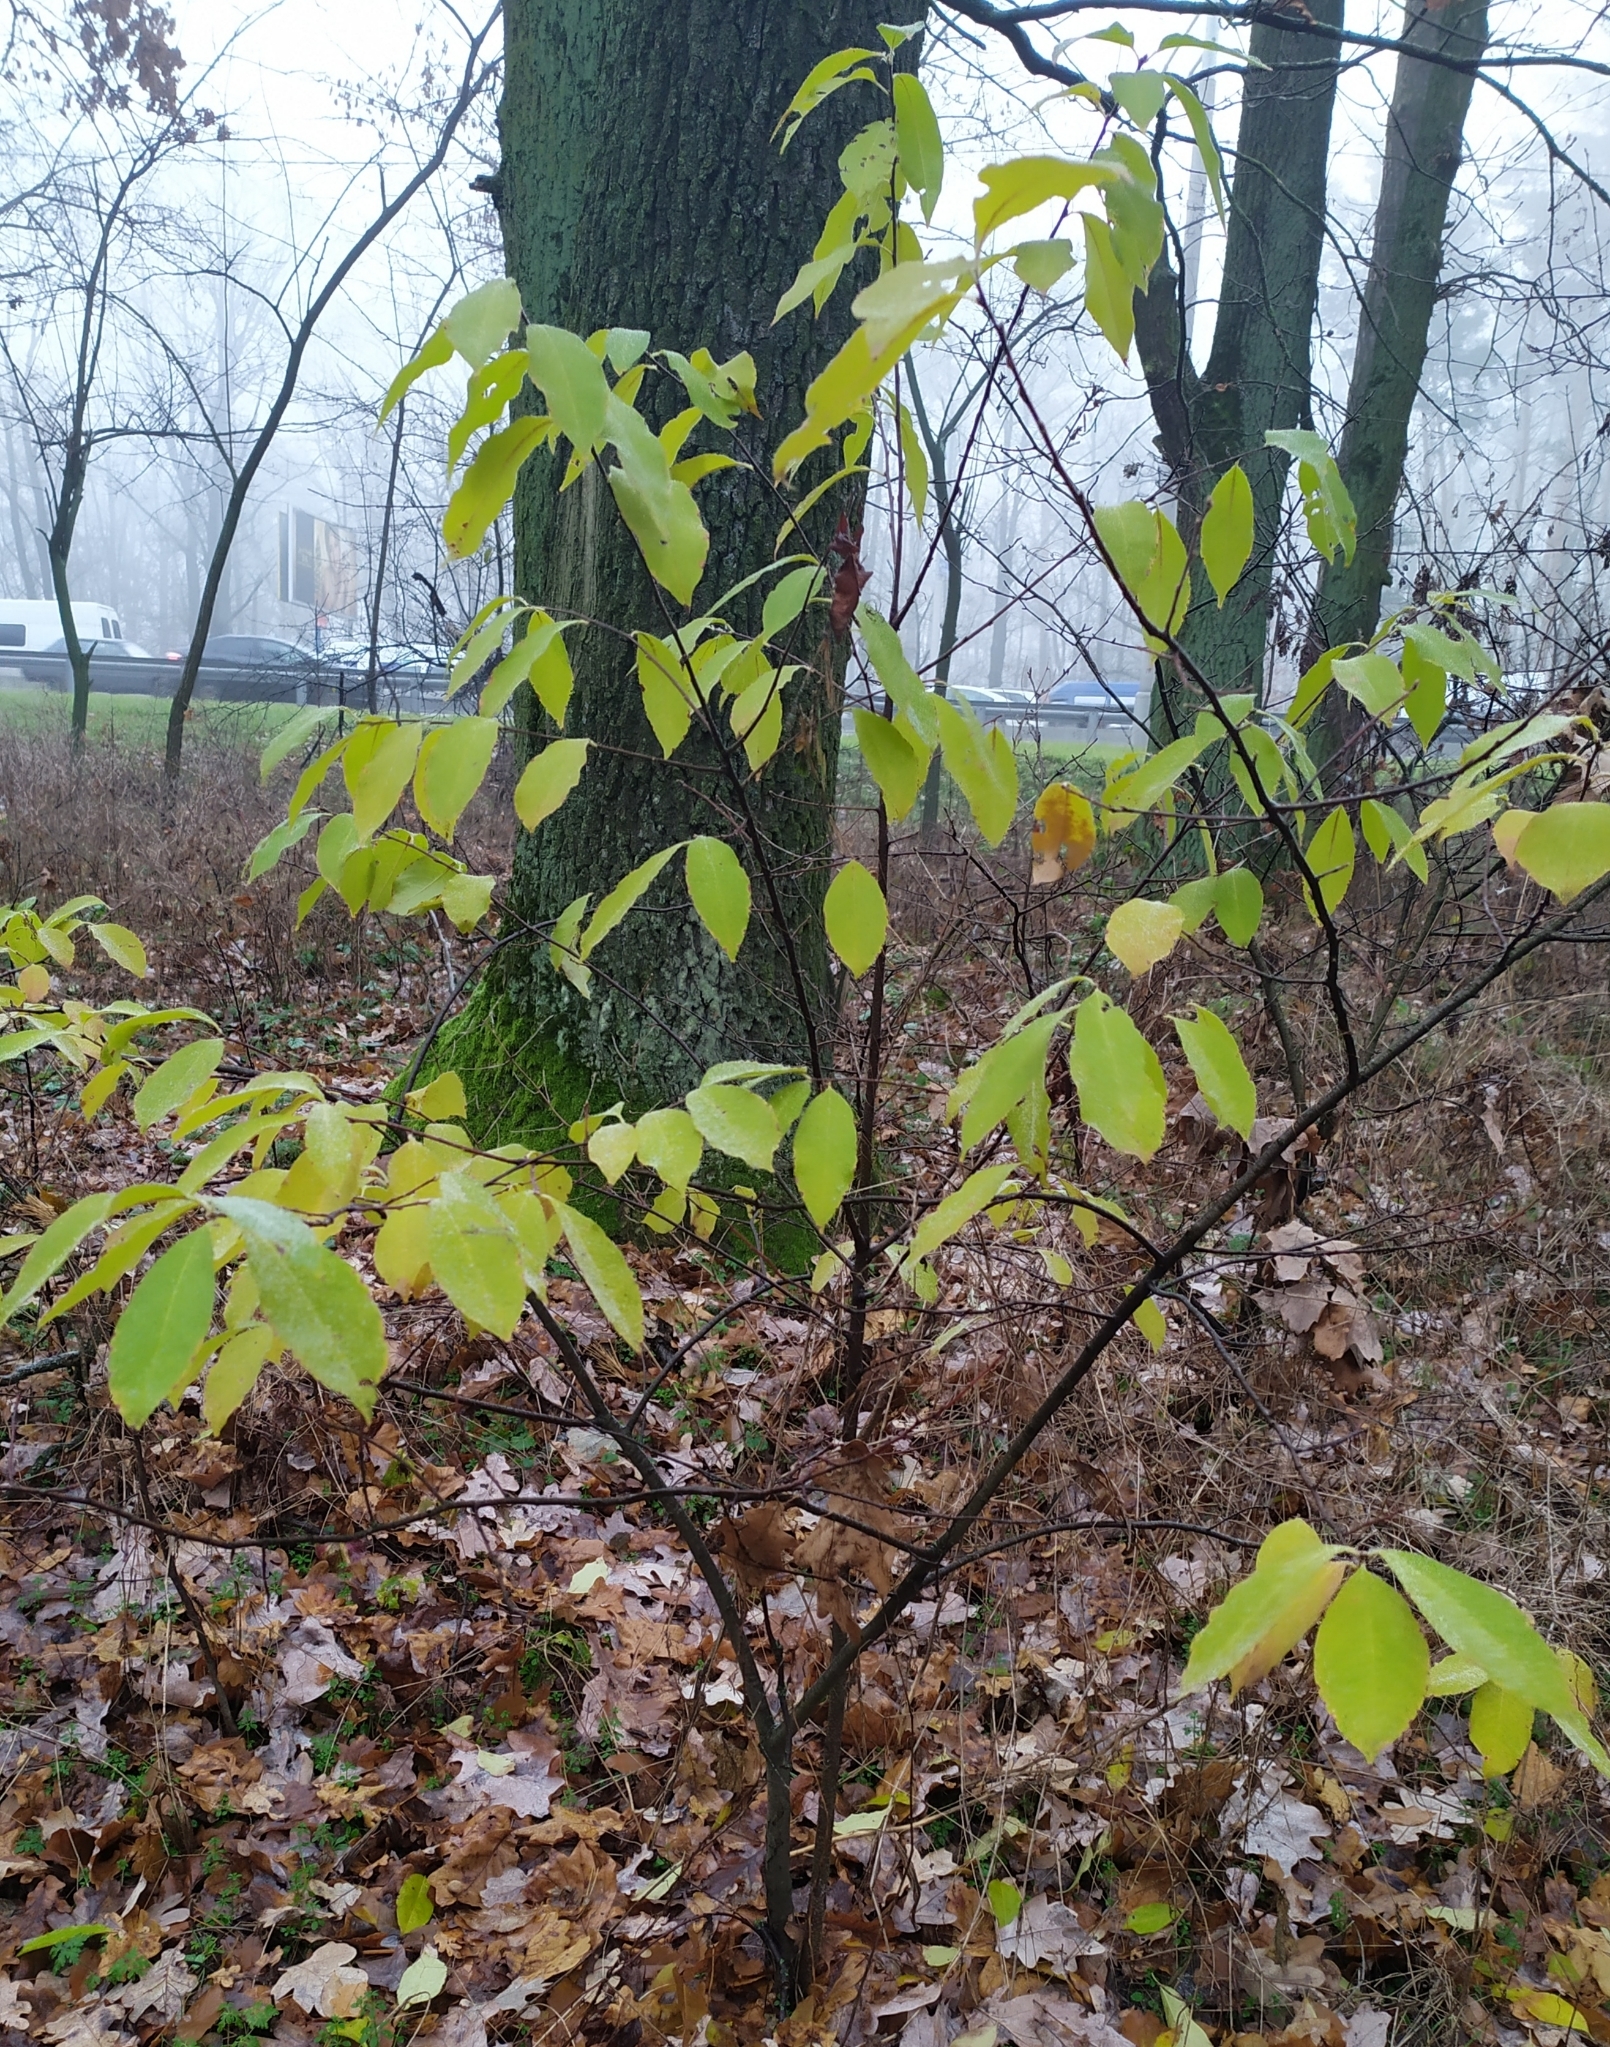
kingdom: Plantae
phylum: Tracheophyta
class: Magnoliopsida
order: Rosales
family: Rosaceae
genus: Prunus
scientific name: Prunus serotina
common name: Black cherry
